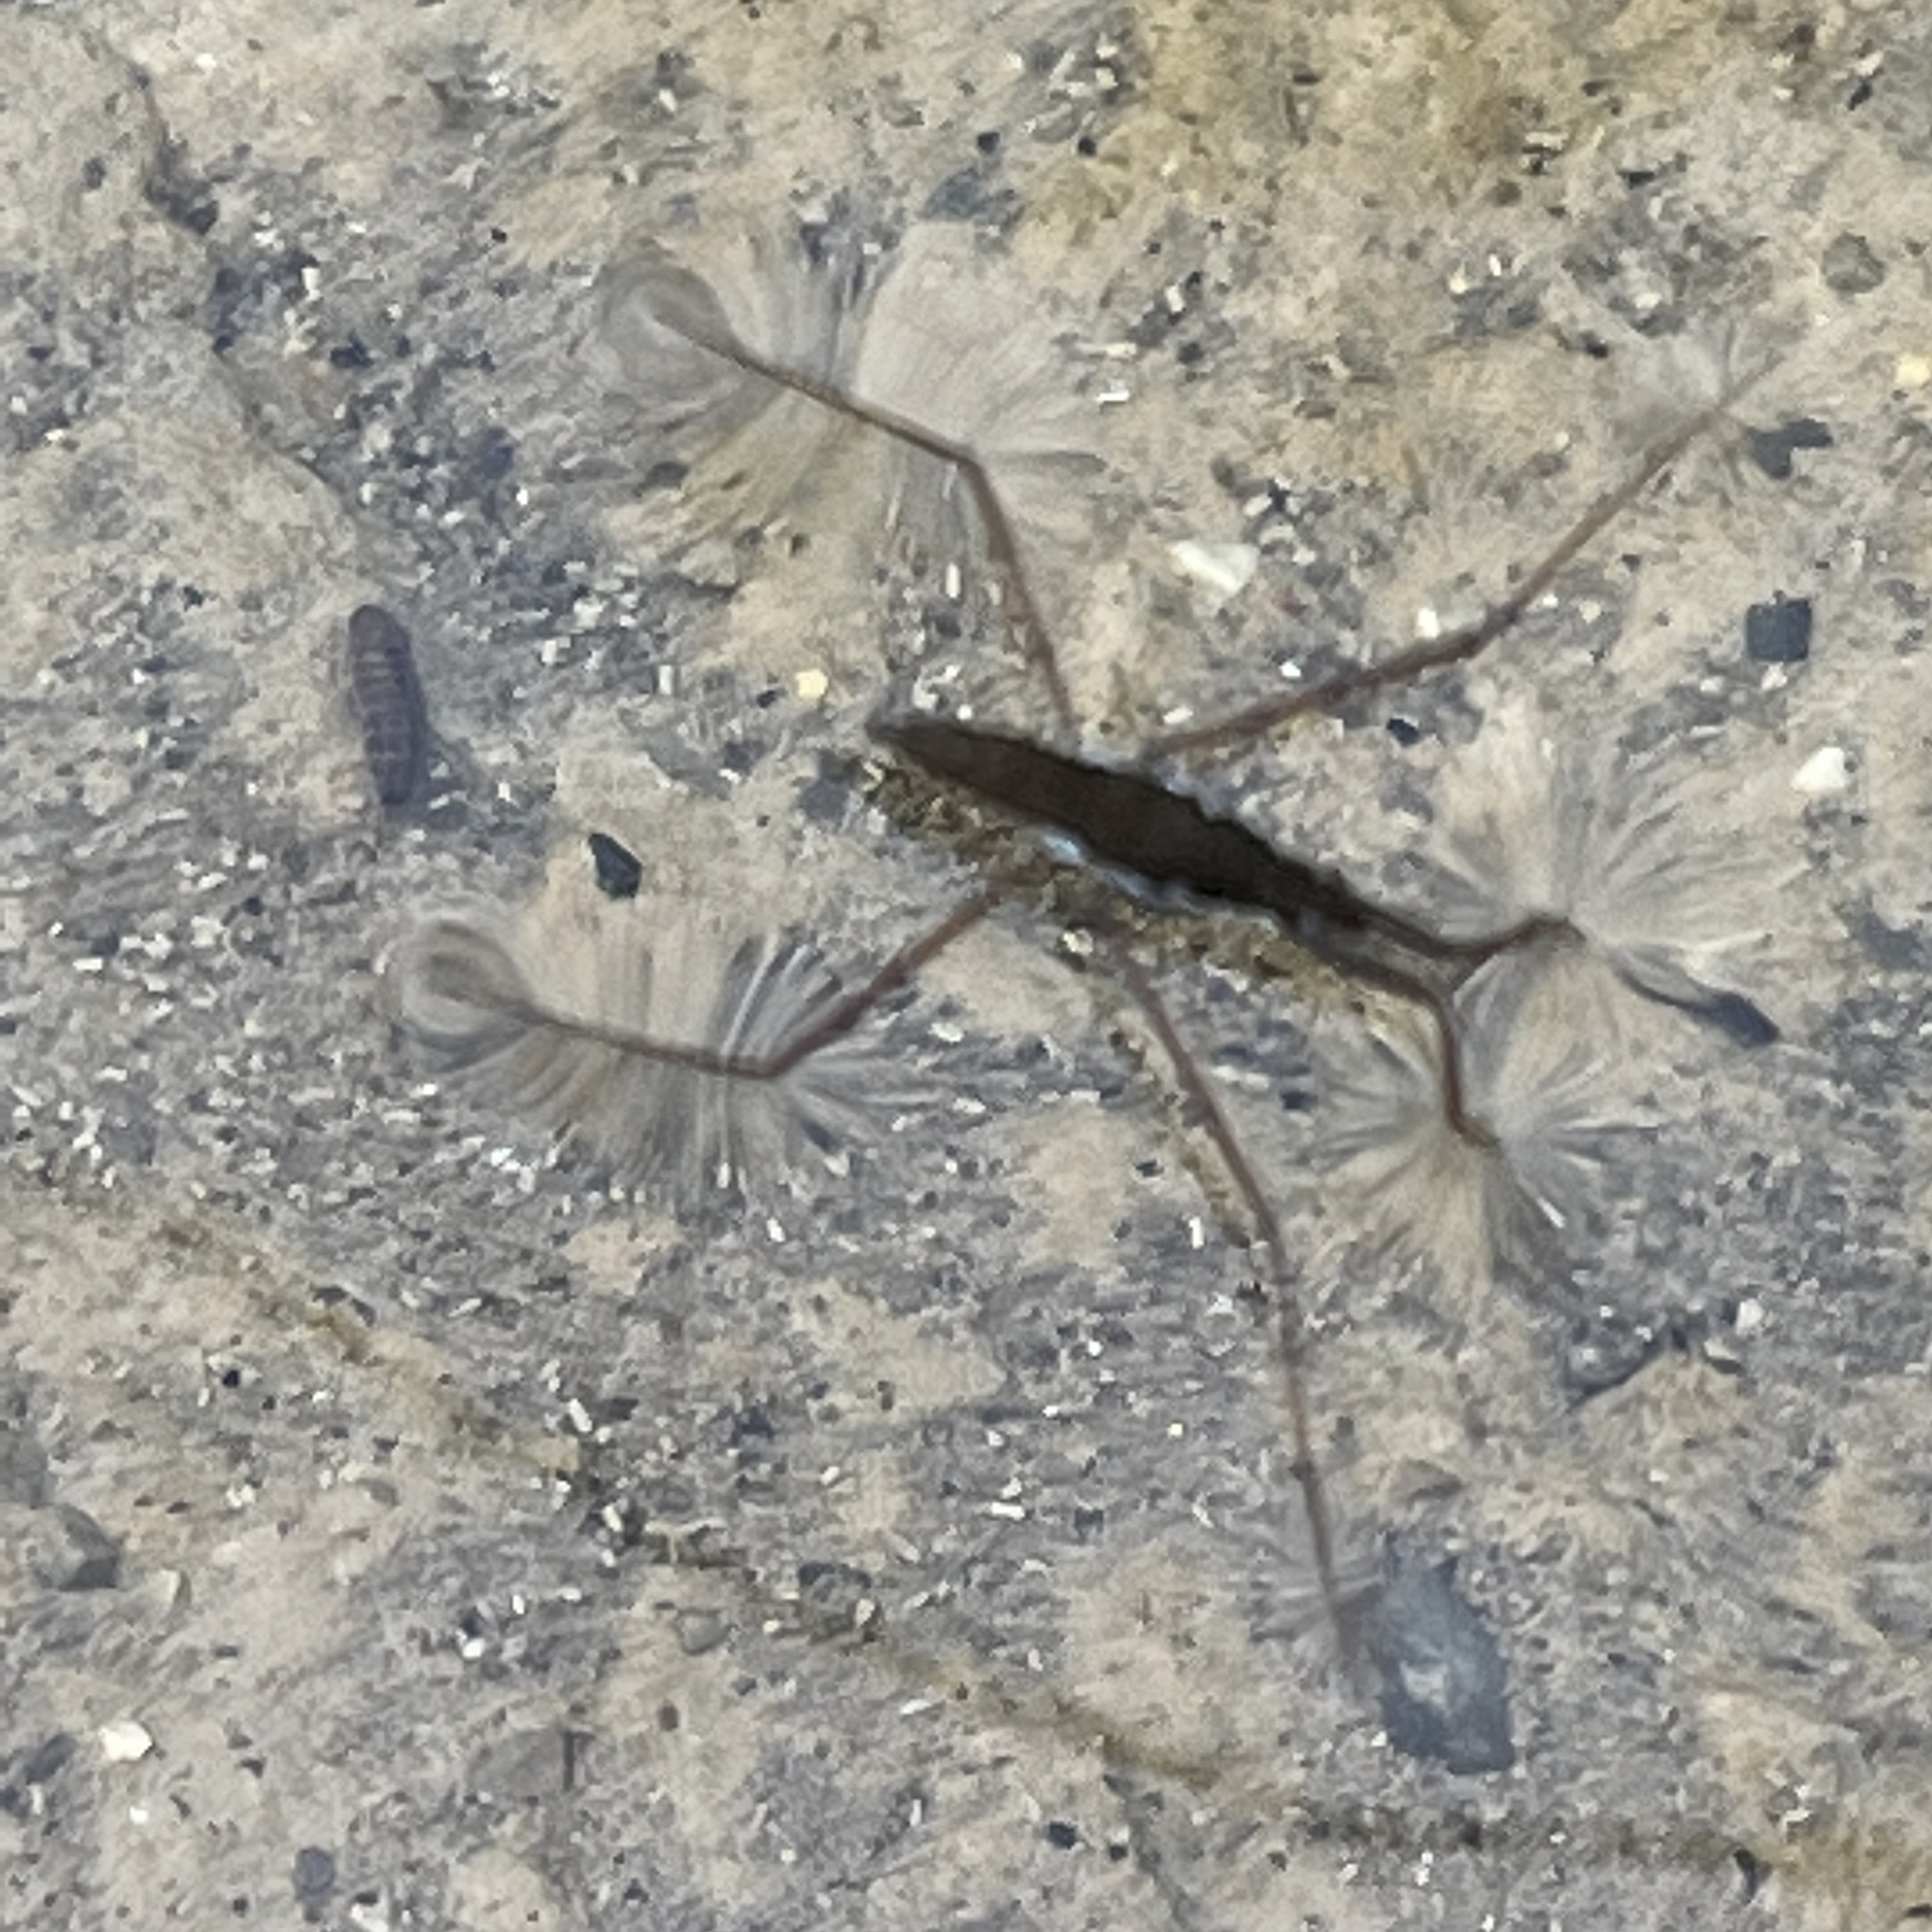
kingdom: Animalia
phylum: Arthropoda
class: Insecta
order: Hemiptera
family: Gerridae
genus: Aquarius
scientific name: Aquarius remigis
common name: Common water strider
